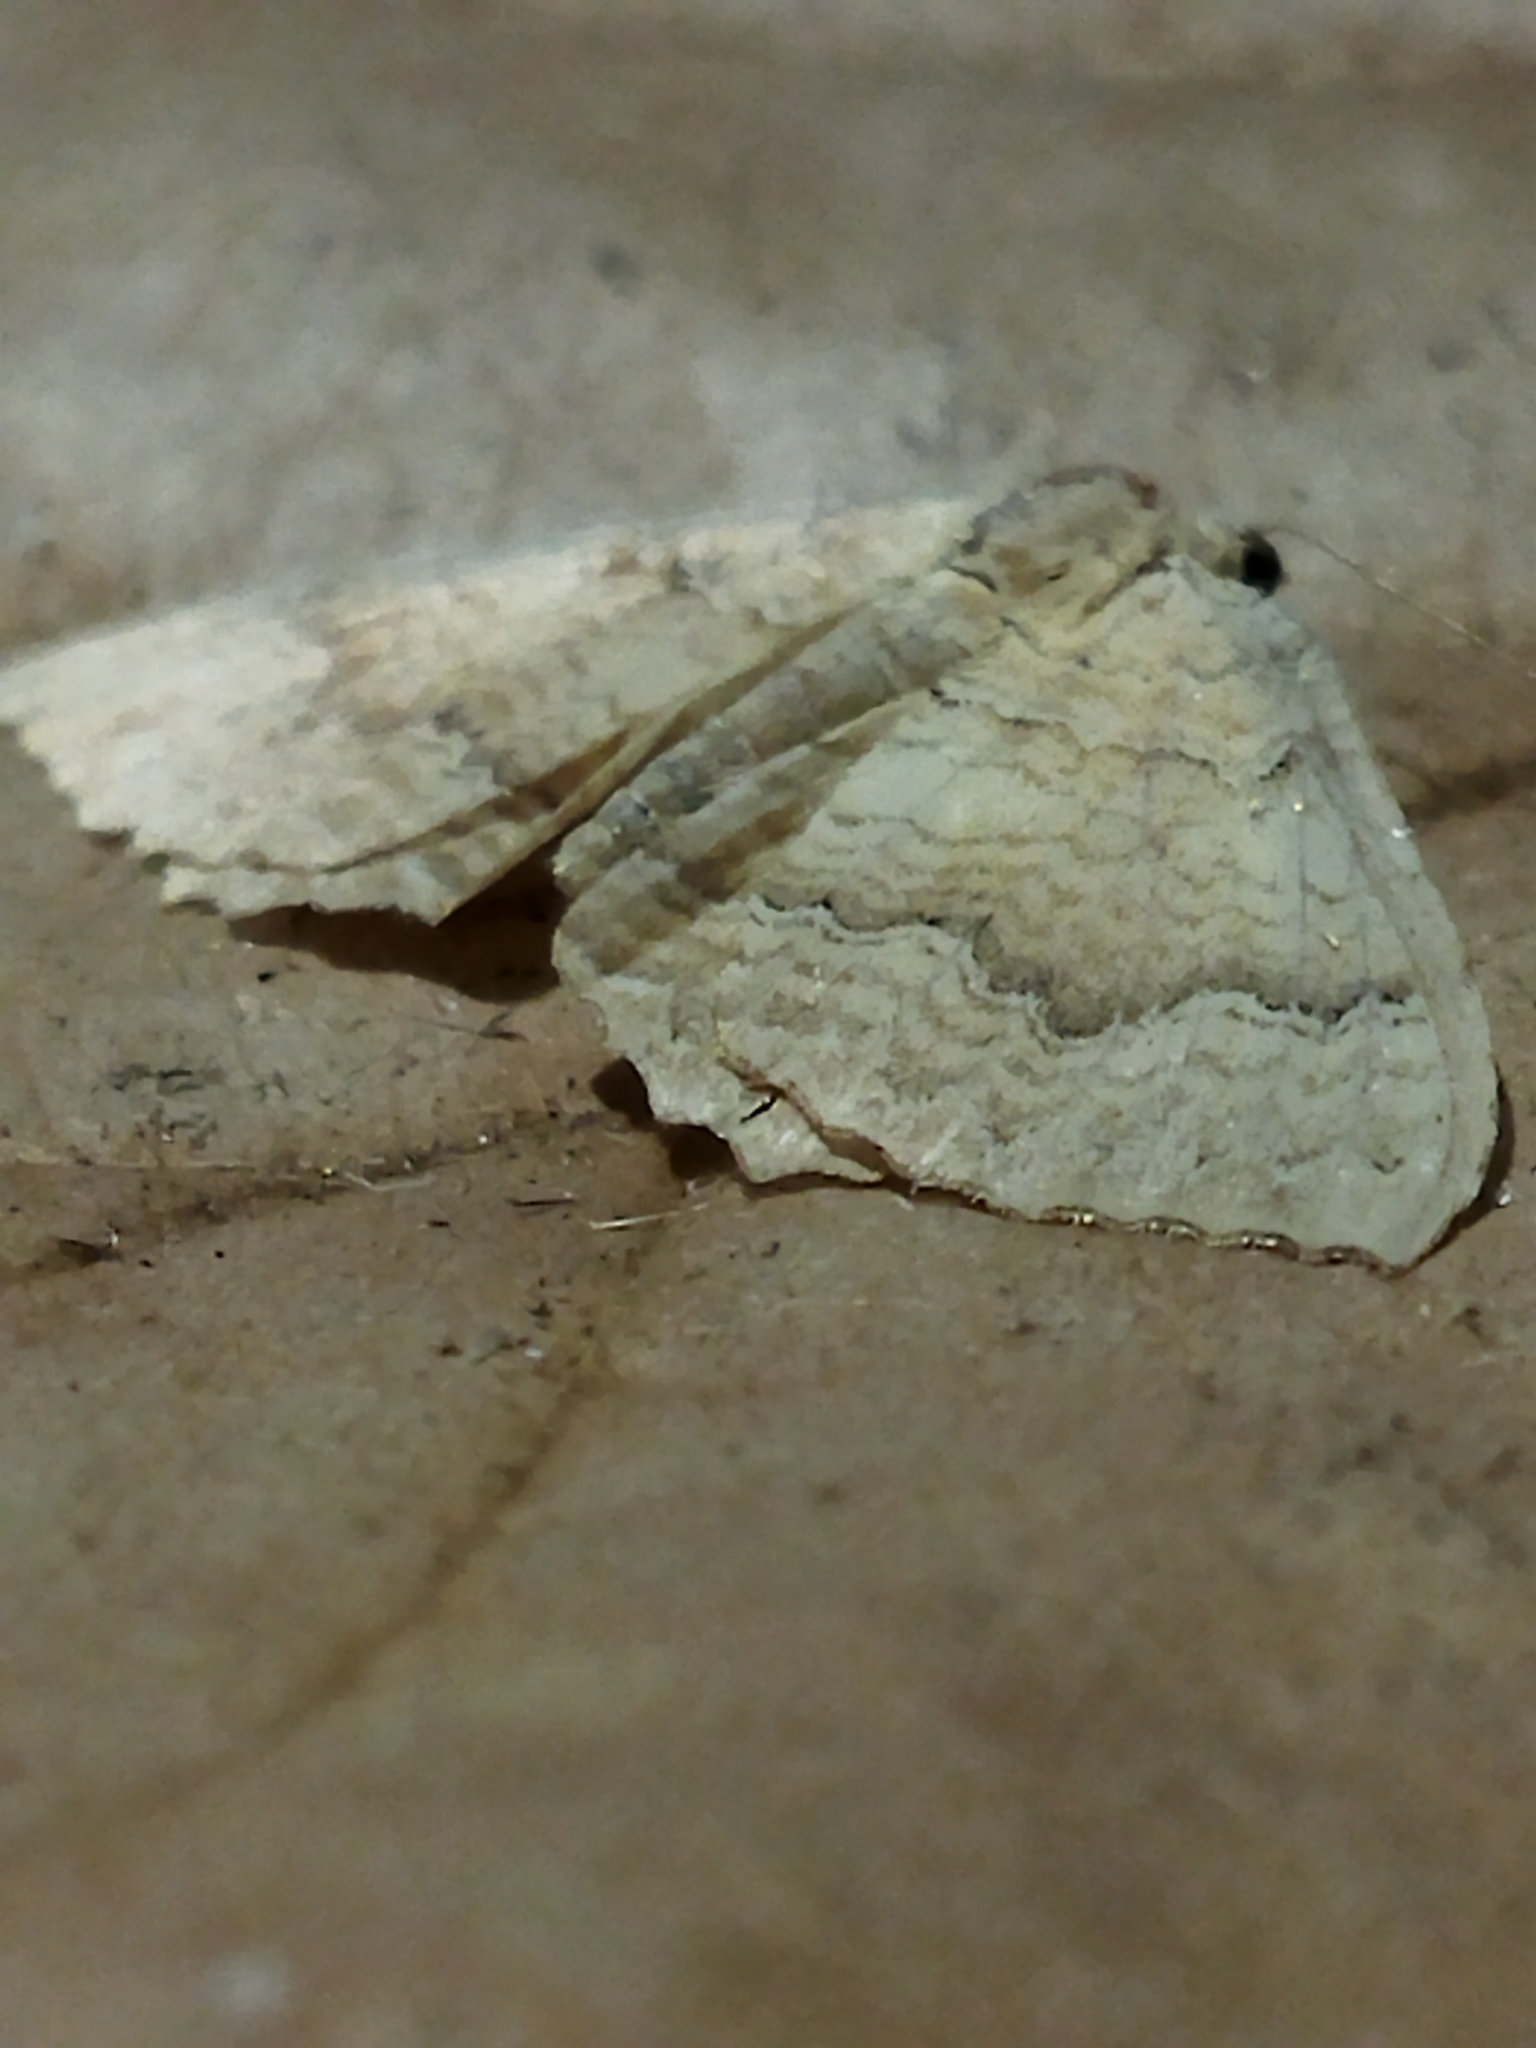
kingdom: Animalia
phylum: Arthropoda
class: Insecta
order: Lepidoptera
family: Geometridae
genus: Camptogramma
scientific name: Camptogramma bilineata
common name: Yellow shell
